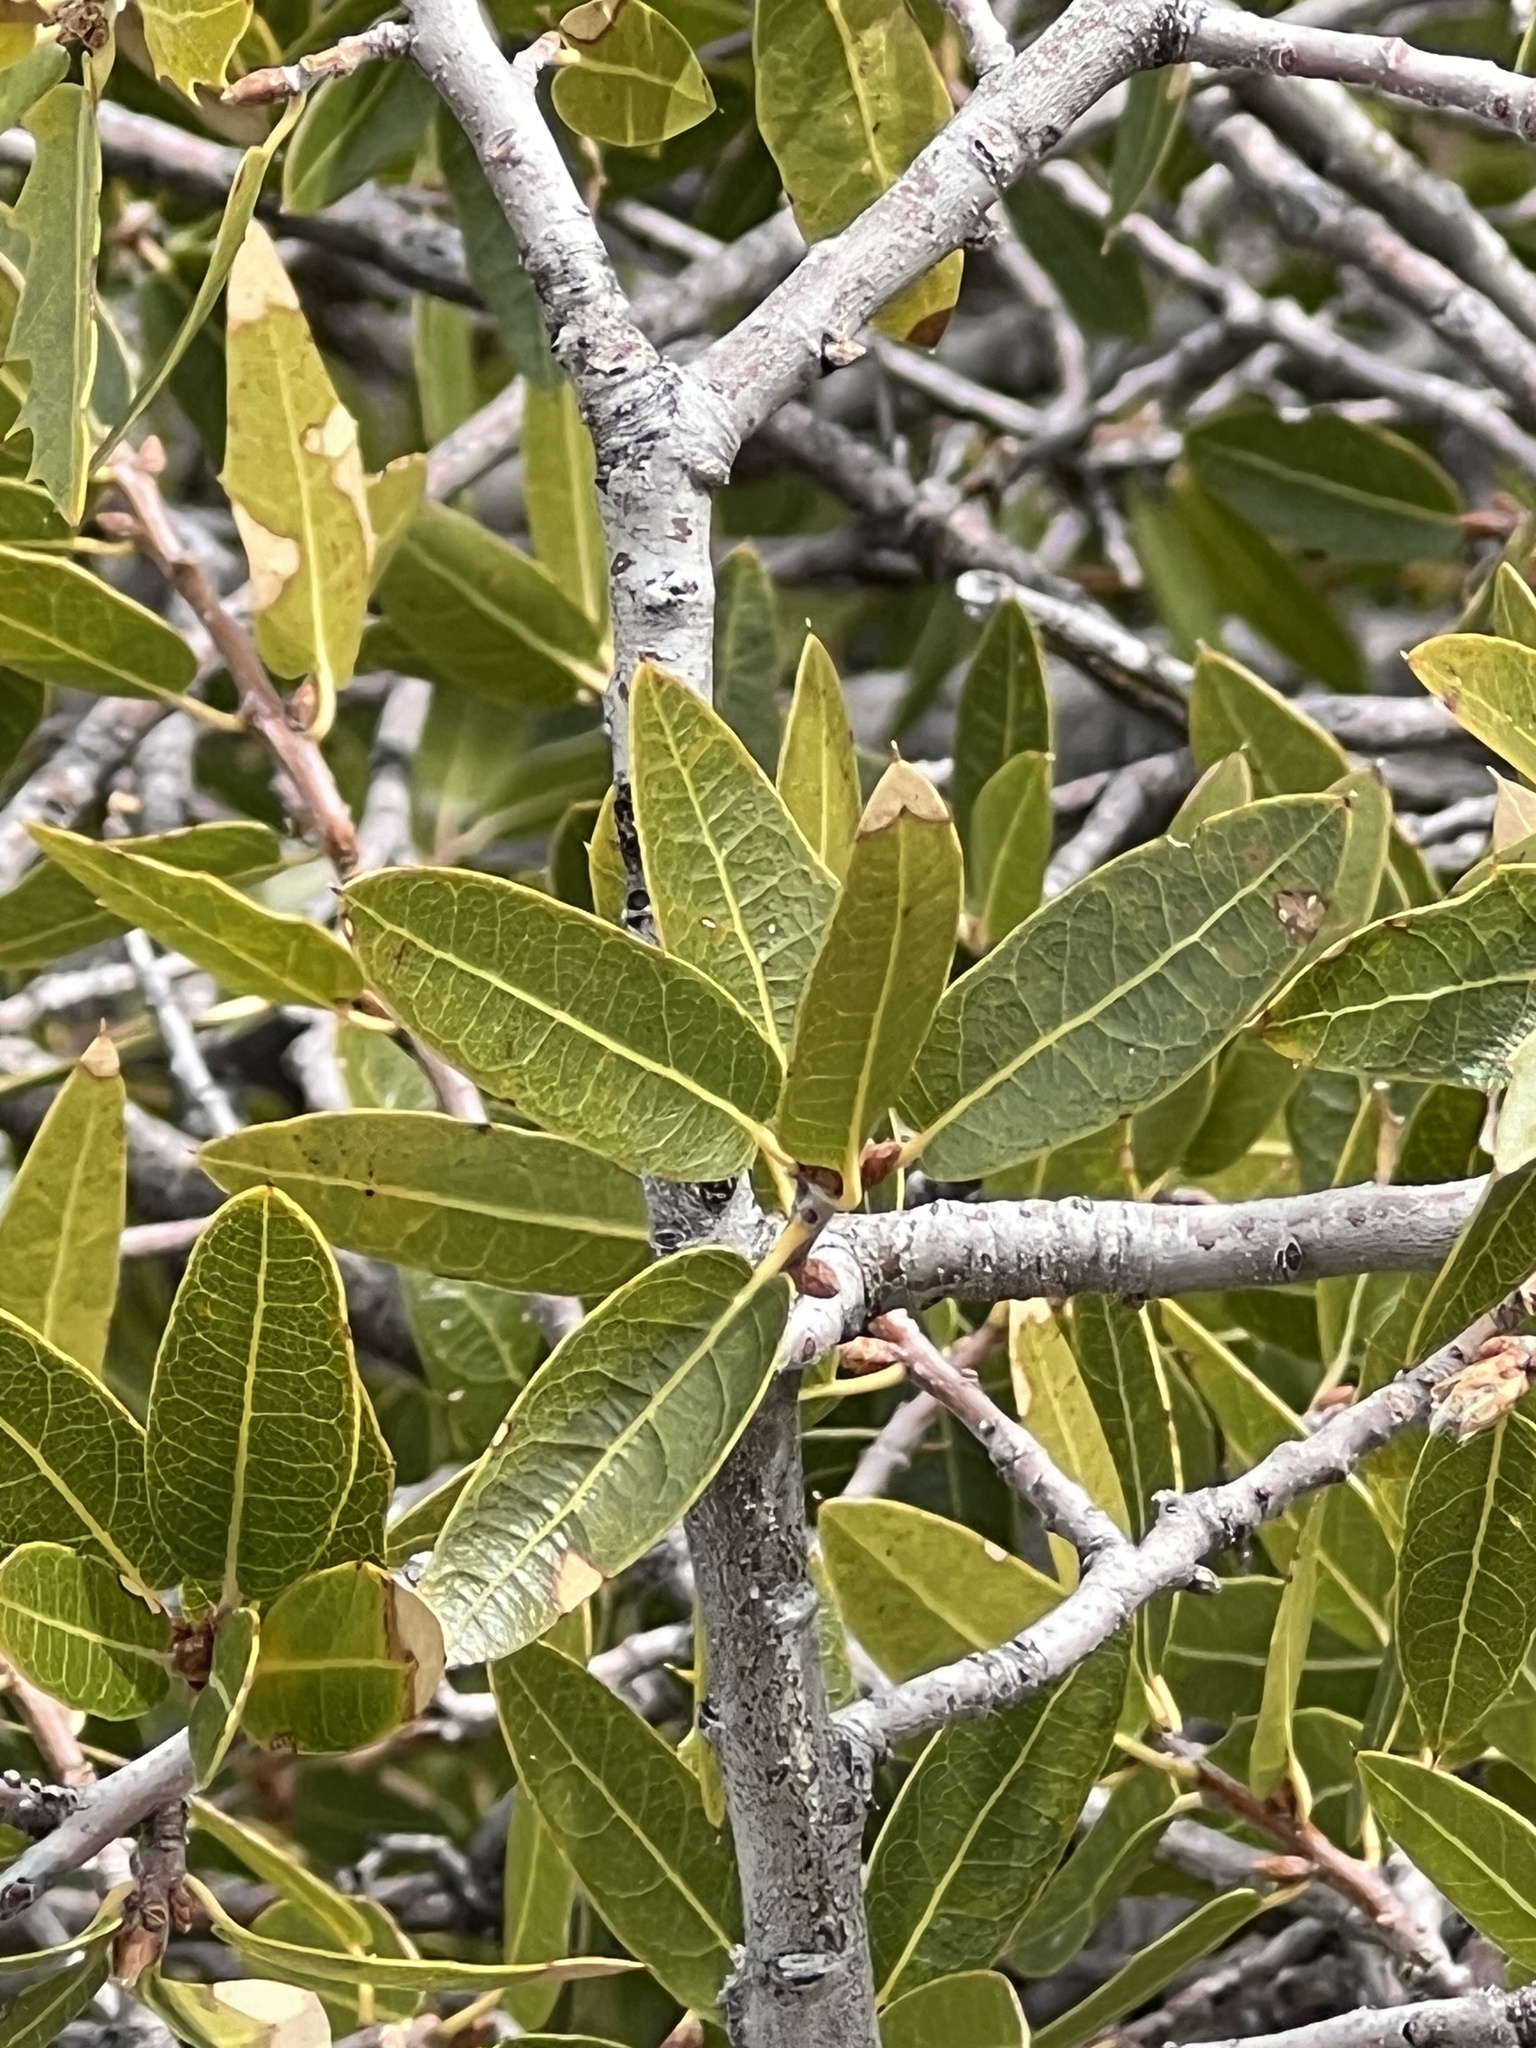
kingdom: Plantae
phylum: Tracheophyta
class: Magnoliopsida
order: Fagales
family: Fagaceae
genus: Quercus
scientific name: Quercus emoryi
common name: Emory oak
